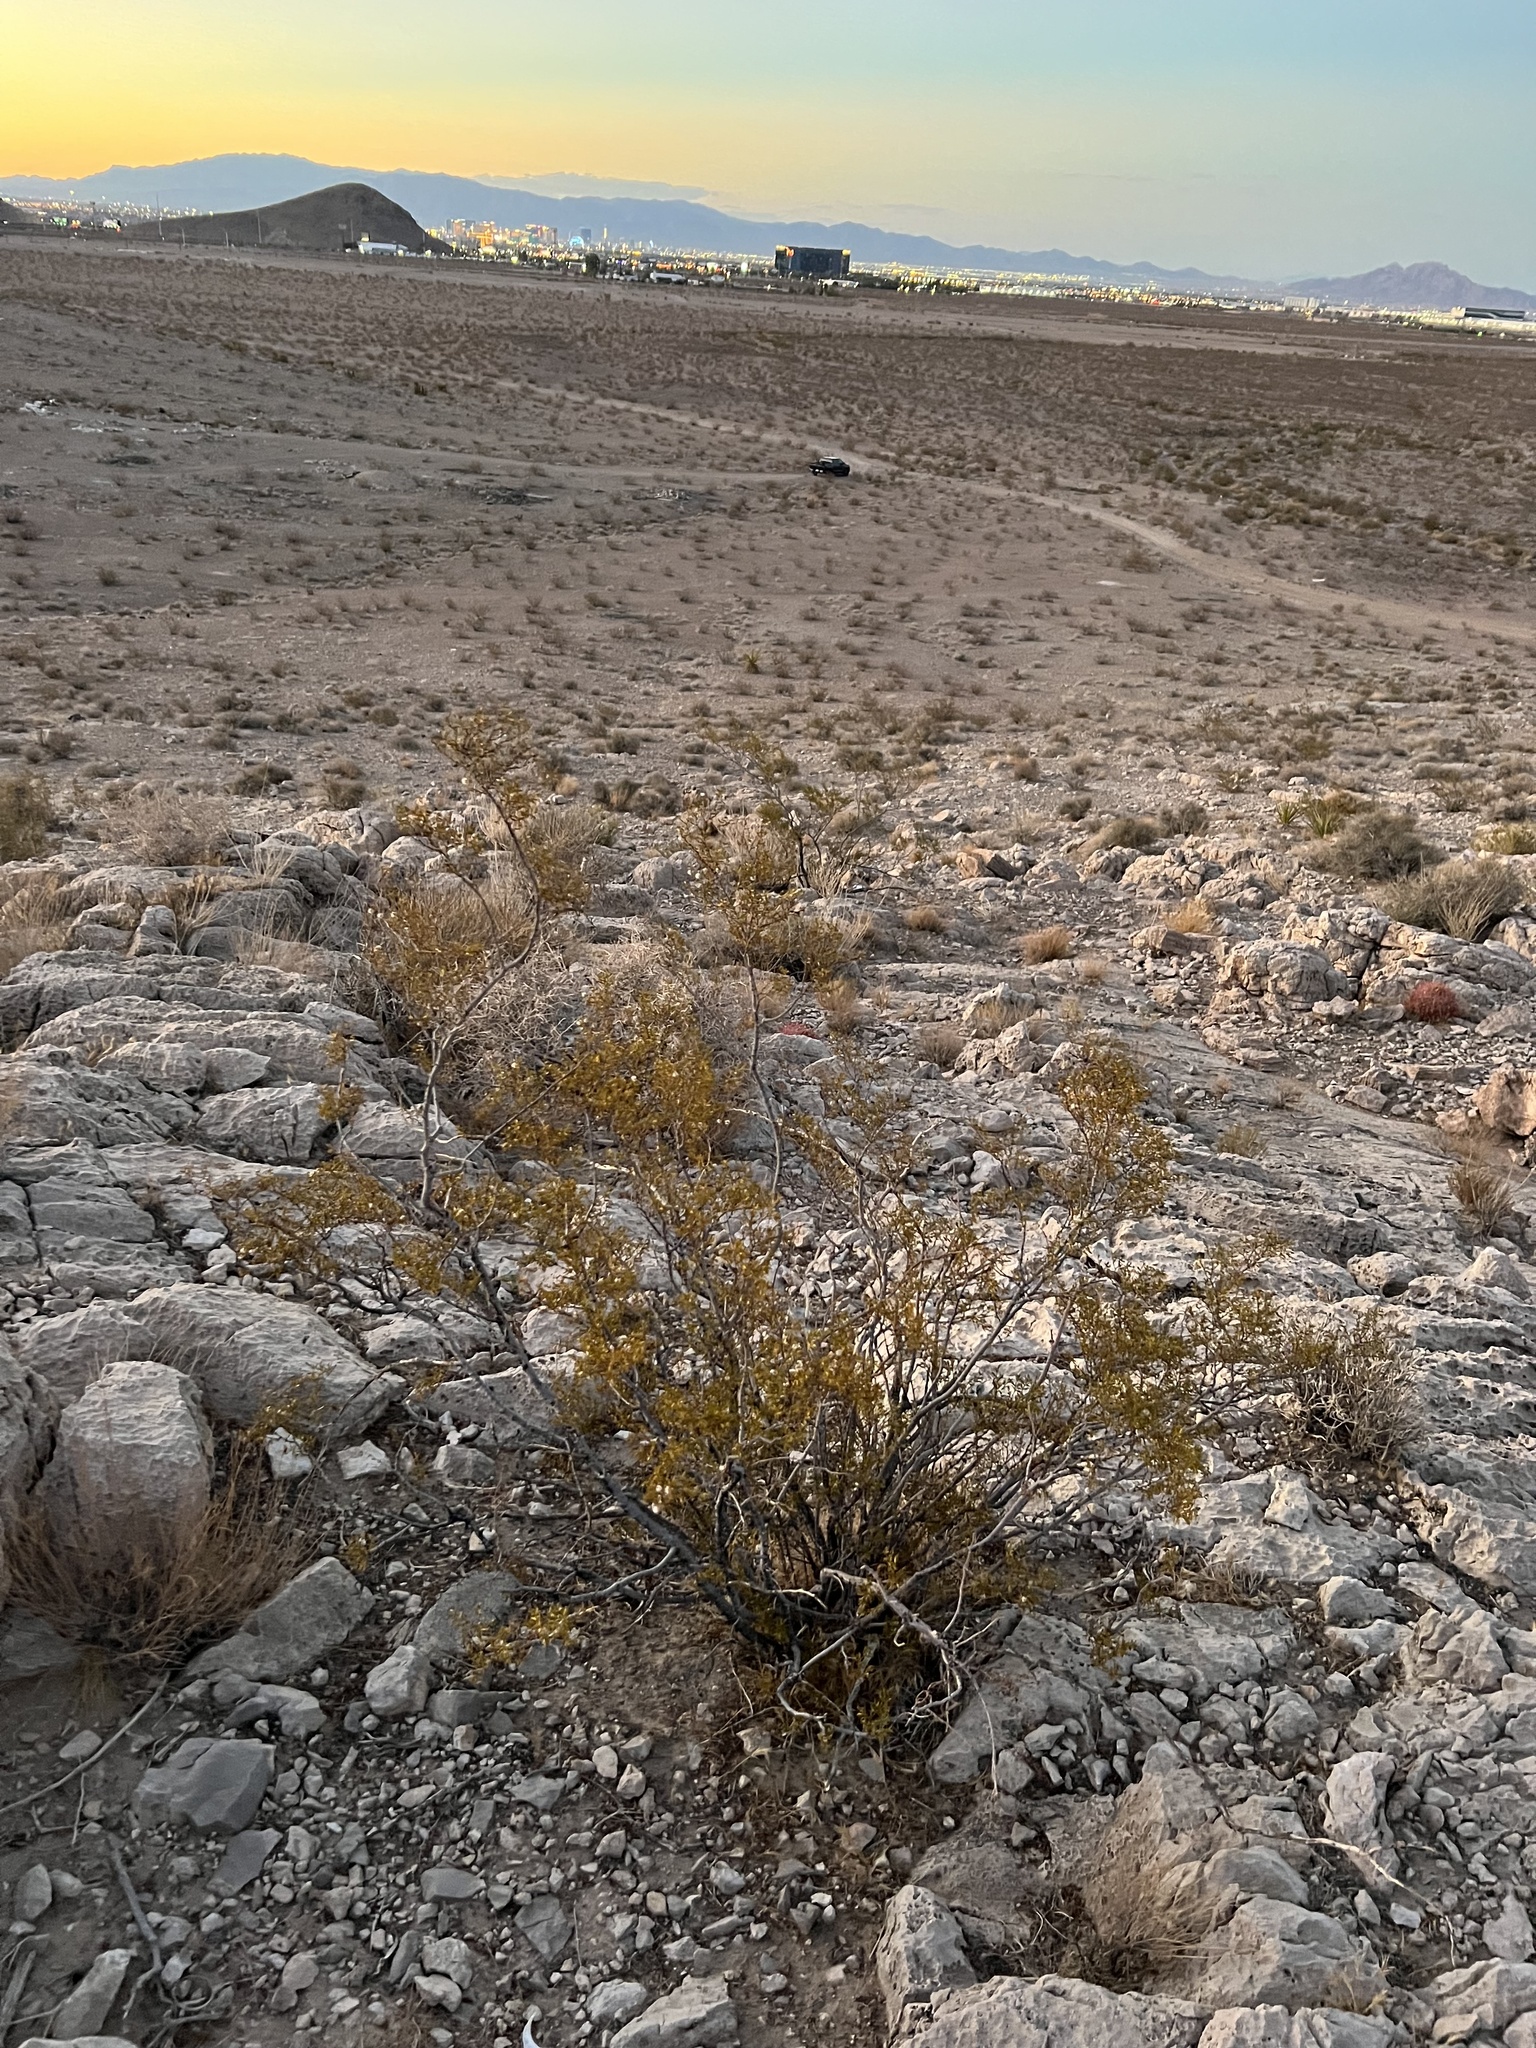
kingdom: Plantae
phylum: Tracheophyta
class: Magnoliopsida
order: Zygophyllales
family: Zygophyllaceae
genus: Larrea
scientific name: Larrea tridentata
